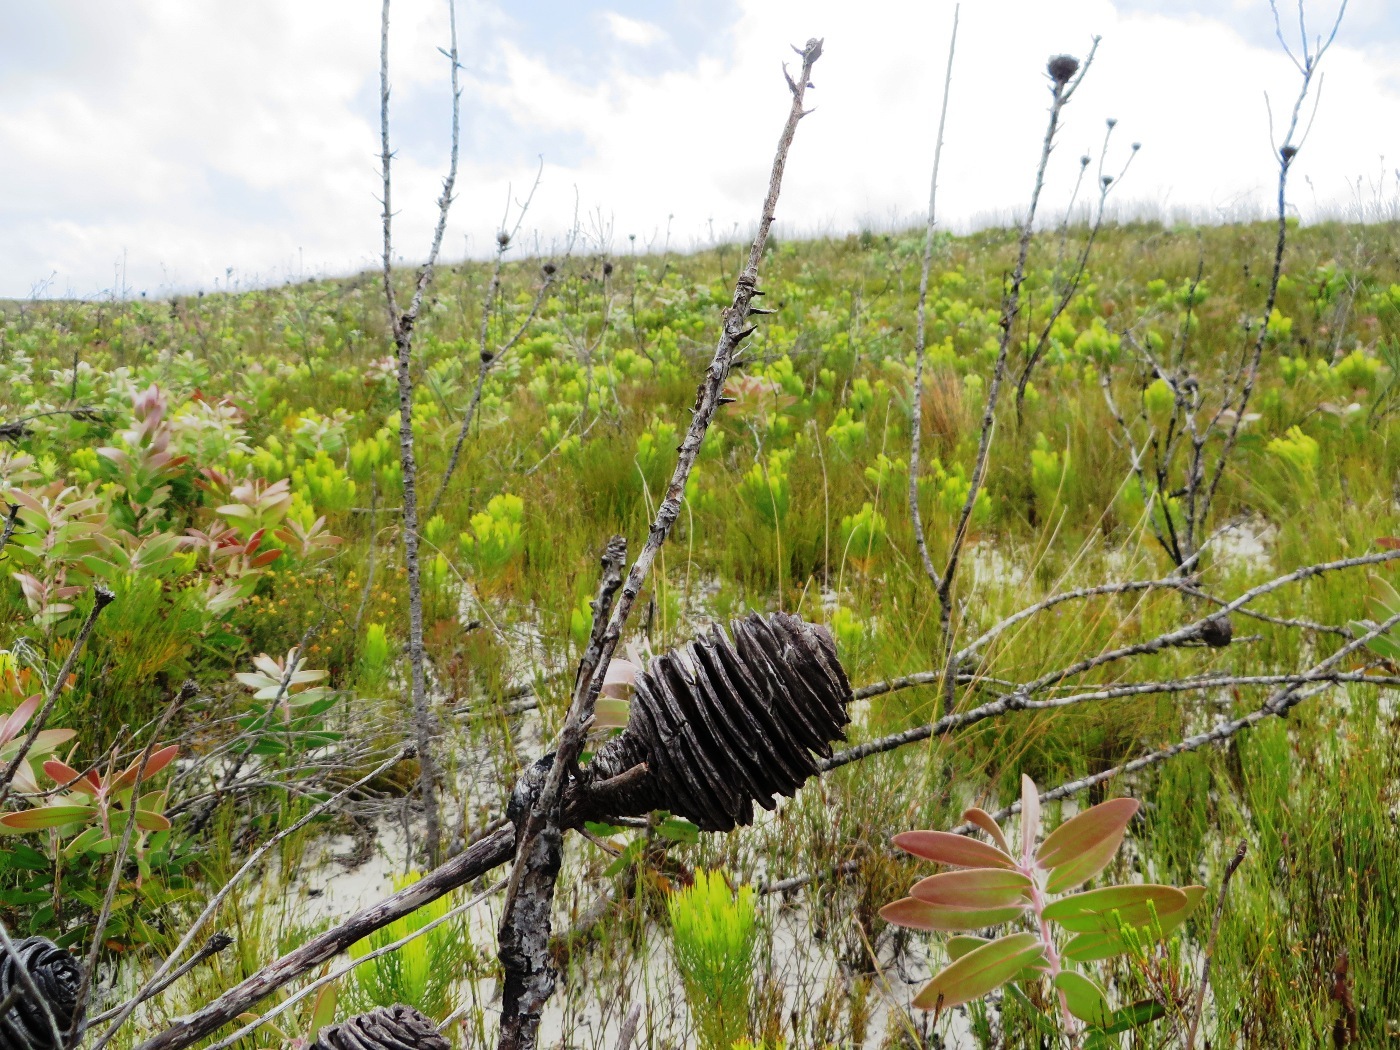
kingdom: Plantae
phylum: Tracheophyta
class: Magnoliopsida
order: Proteales
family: Proteaceae
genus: Leucadendron
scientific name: Leucadendron platyspermum
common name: Plate-seed conebush
